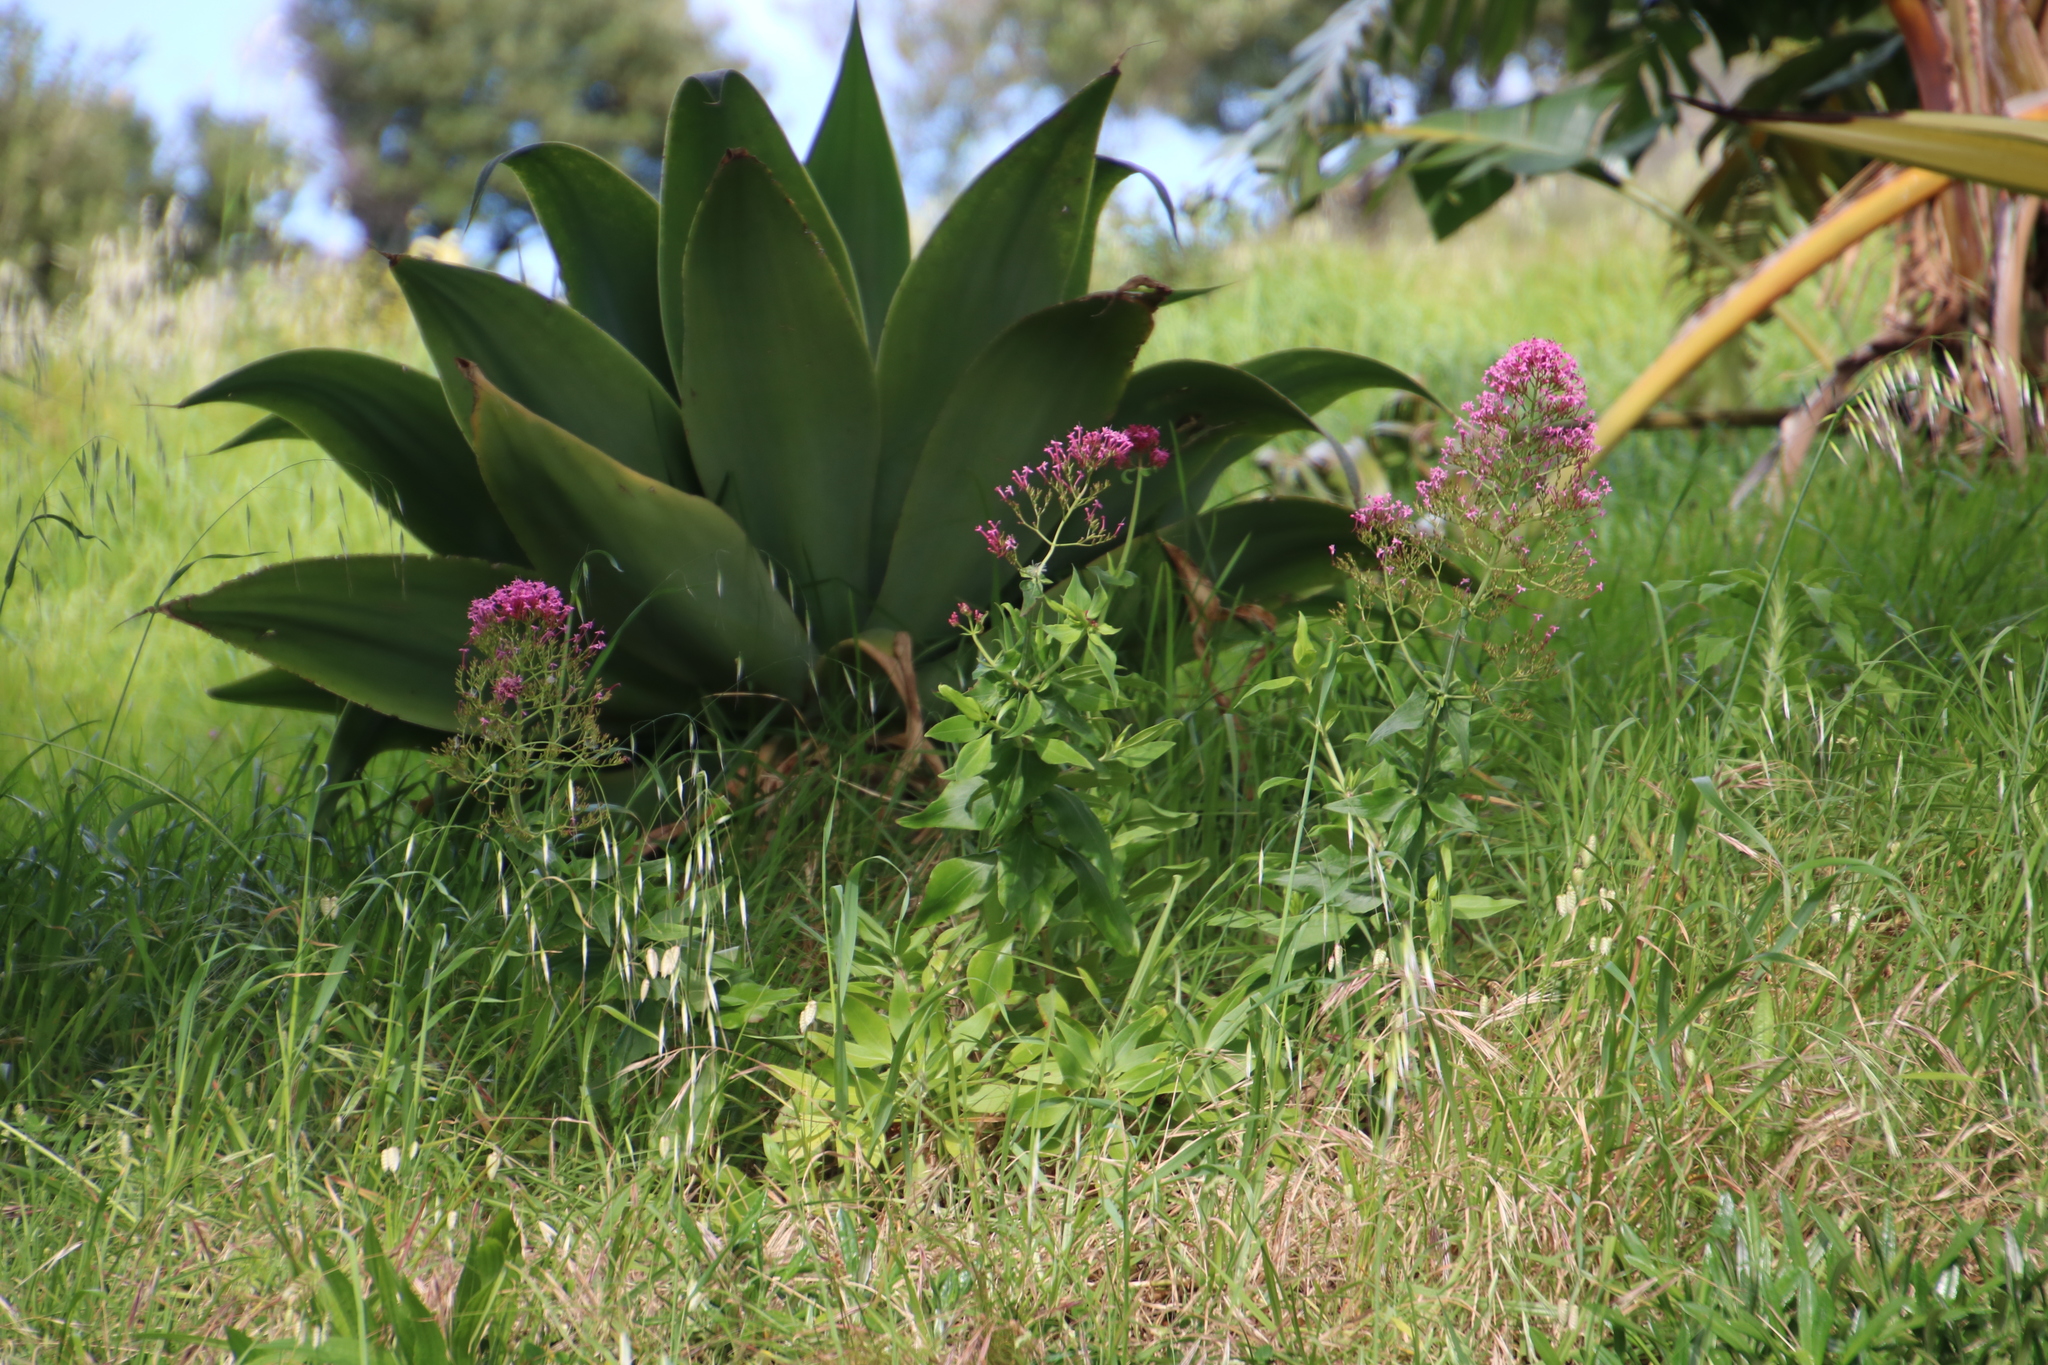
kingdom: Plantae
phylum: Tracheophyta
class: Magnoliopsida
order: Dipsacales
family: Caprifoliaceae
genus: Centranthus
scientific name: Centranthus ruber
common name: Red valerian
